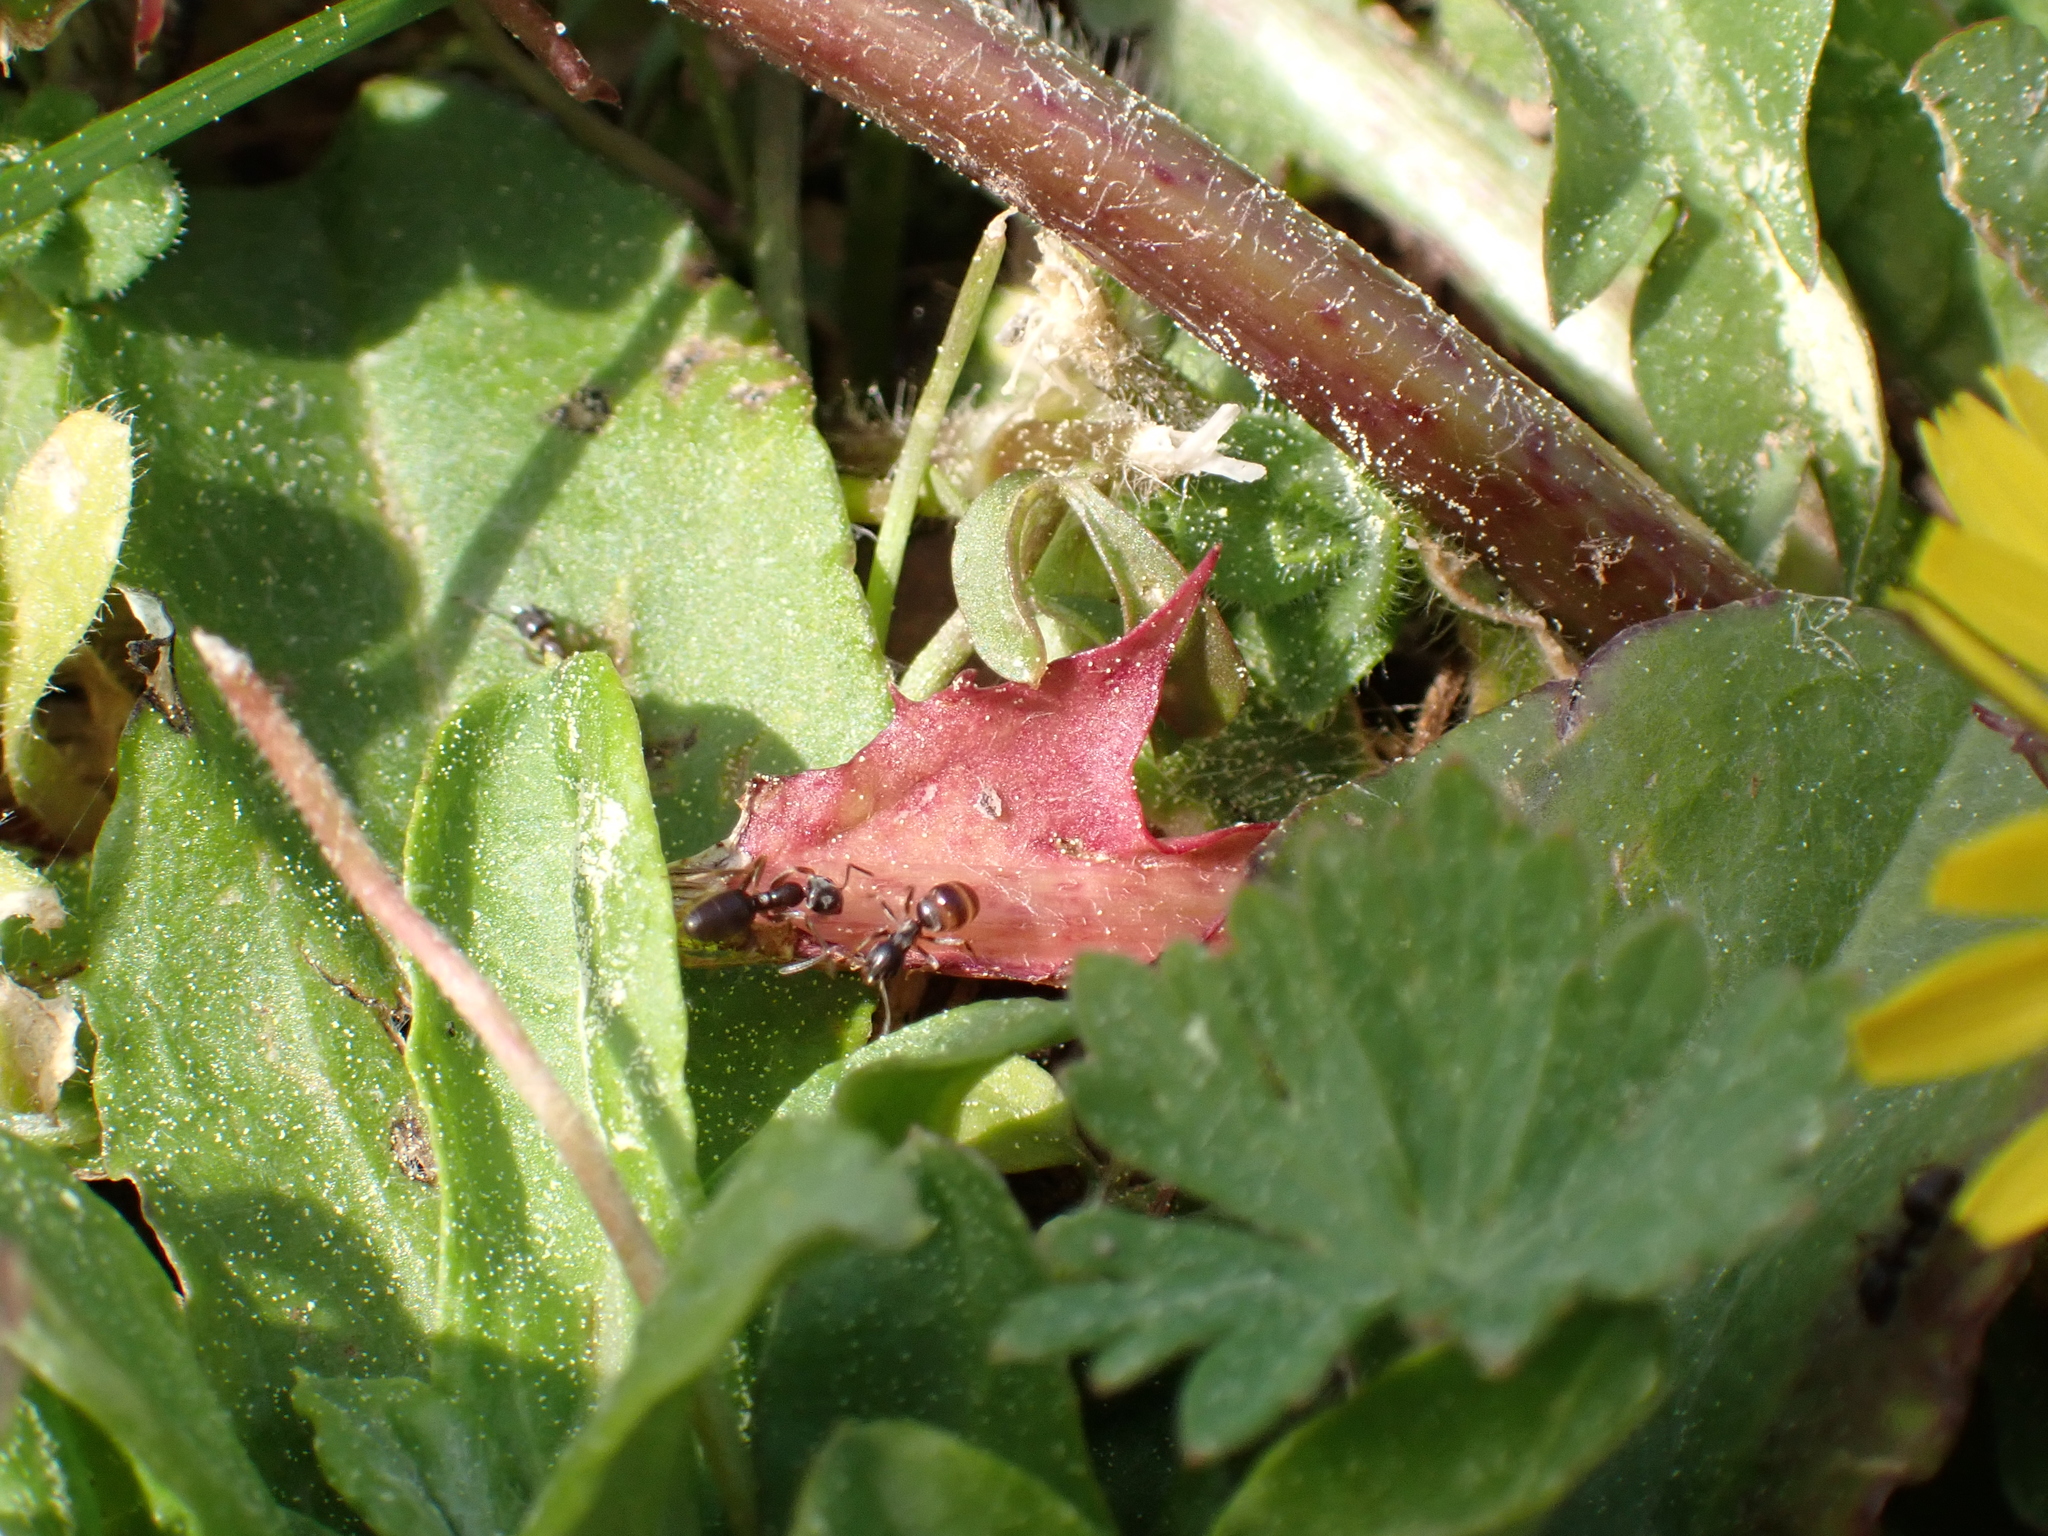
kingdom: Animalia
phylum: Arthropoda
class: Insecta
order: Hymenoptera
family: Formicidae
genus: Tapinoma
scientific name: Tapinoma sessile
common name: Odorous house ant
